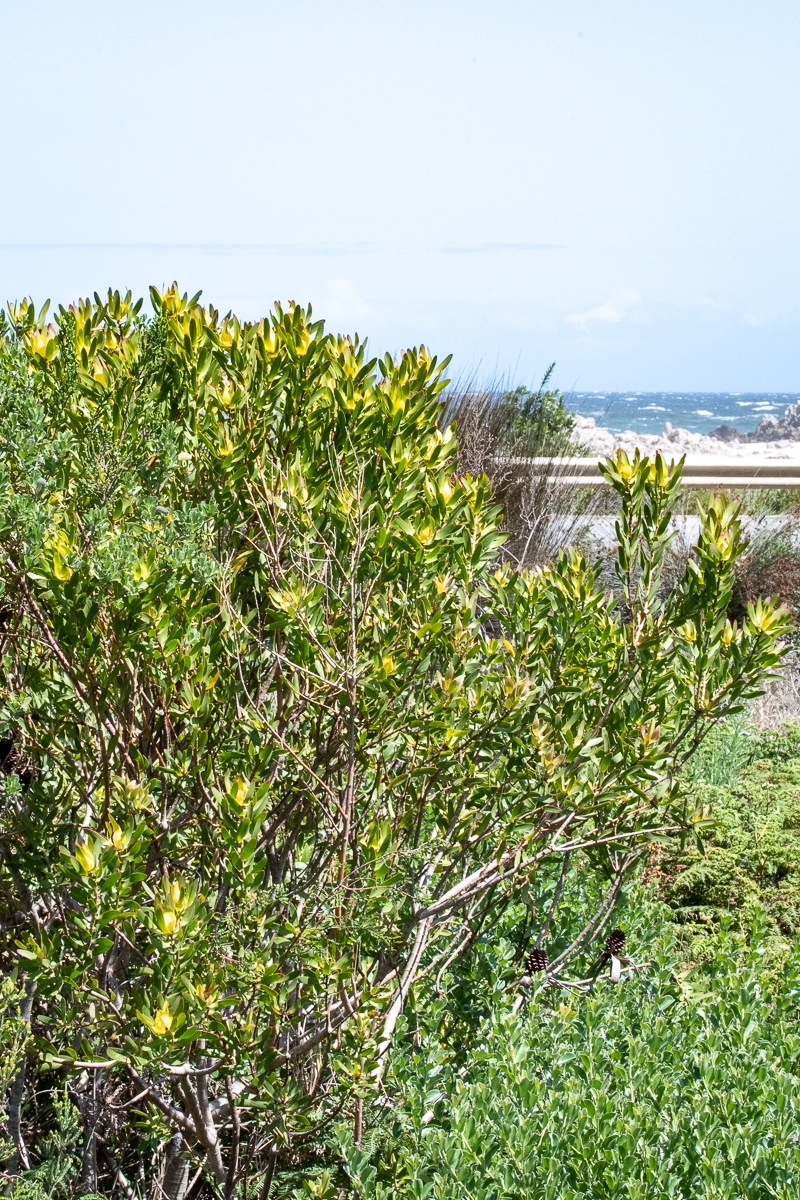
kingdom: Plantae
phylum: Tracheophyta
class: Magnoliopsida
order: Proteales
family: Proteaceae
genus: Leucadendron
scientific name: Leucadendron laureolum
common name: Golden sunshinebush
